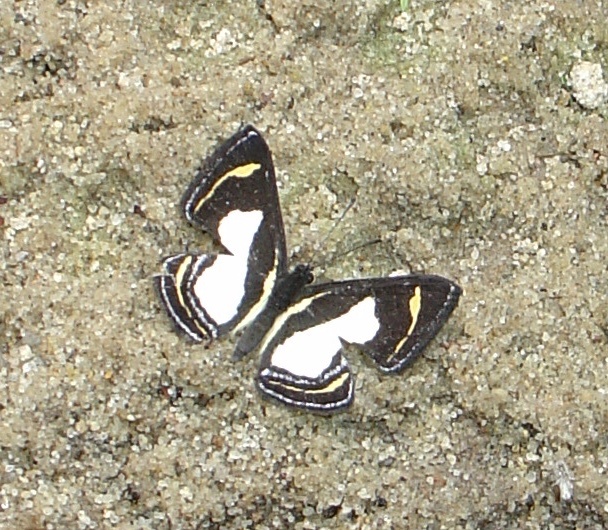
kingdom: Animalia
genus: Baeotis
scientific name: Baeotis bacaenis
